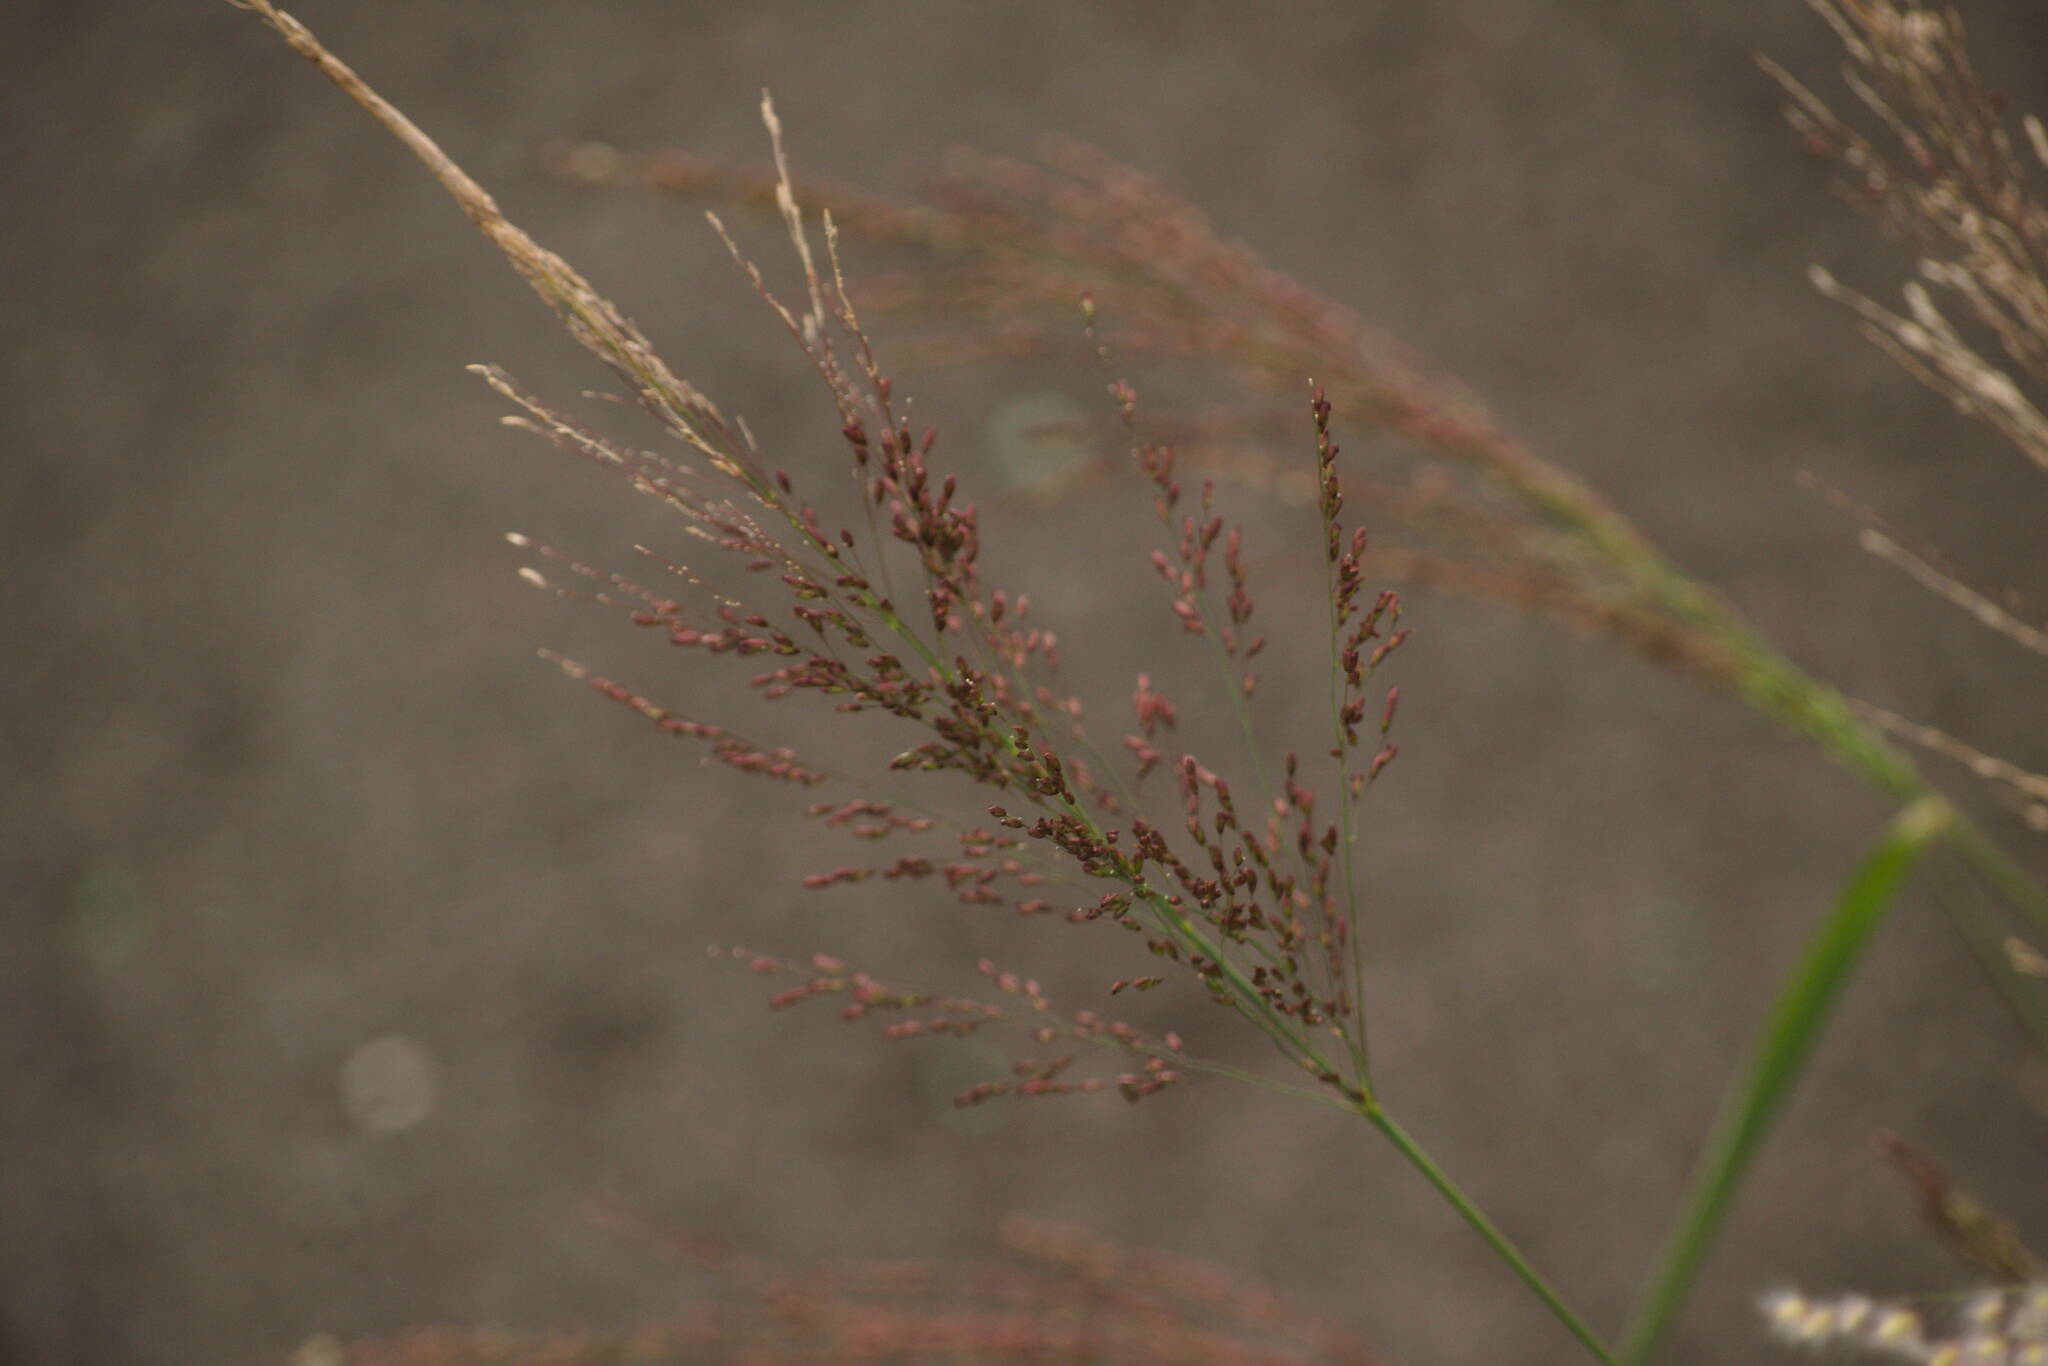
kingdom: Plantae
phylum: Tracheophyta
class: Liliopsida
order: Poales
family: Poaceae
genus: Megathyrsus
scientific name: Megathyrsus maximus
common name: Guineagrass
